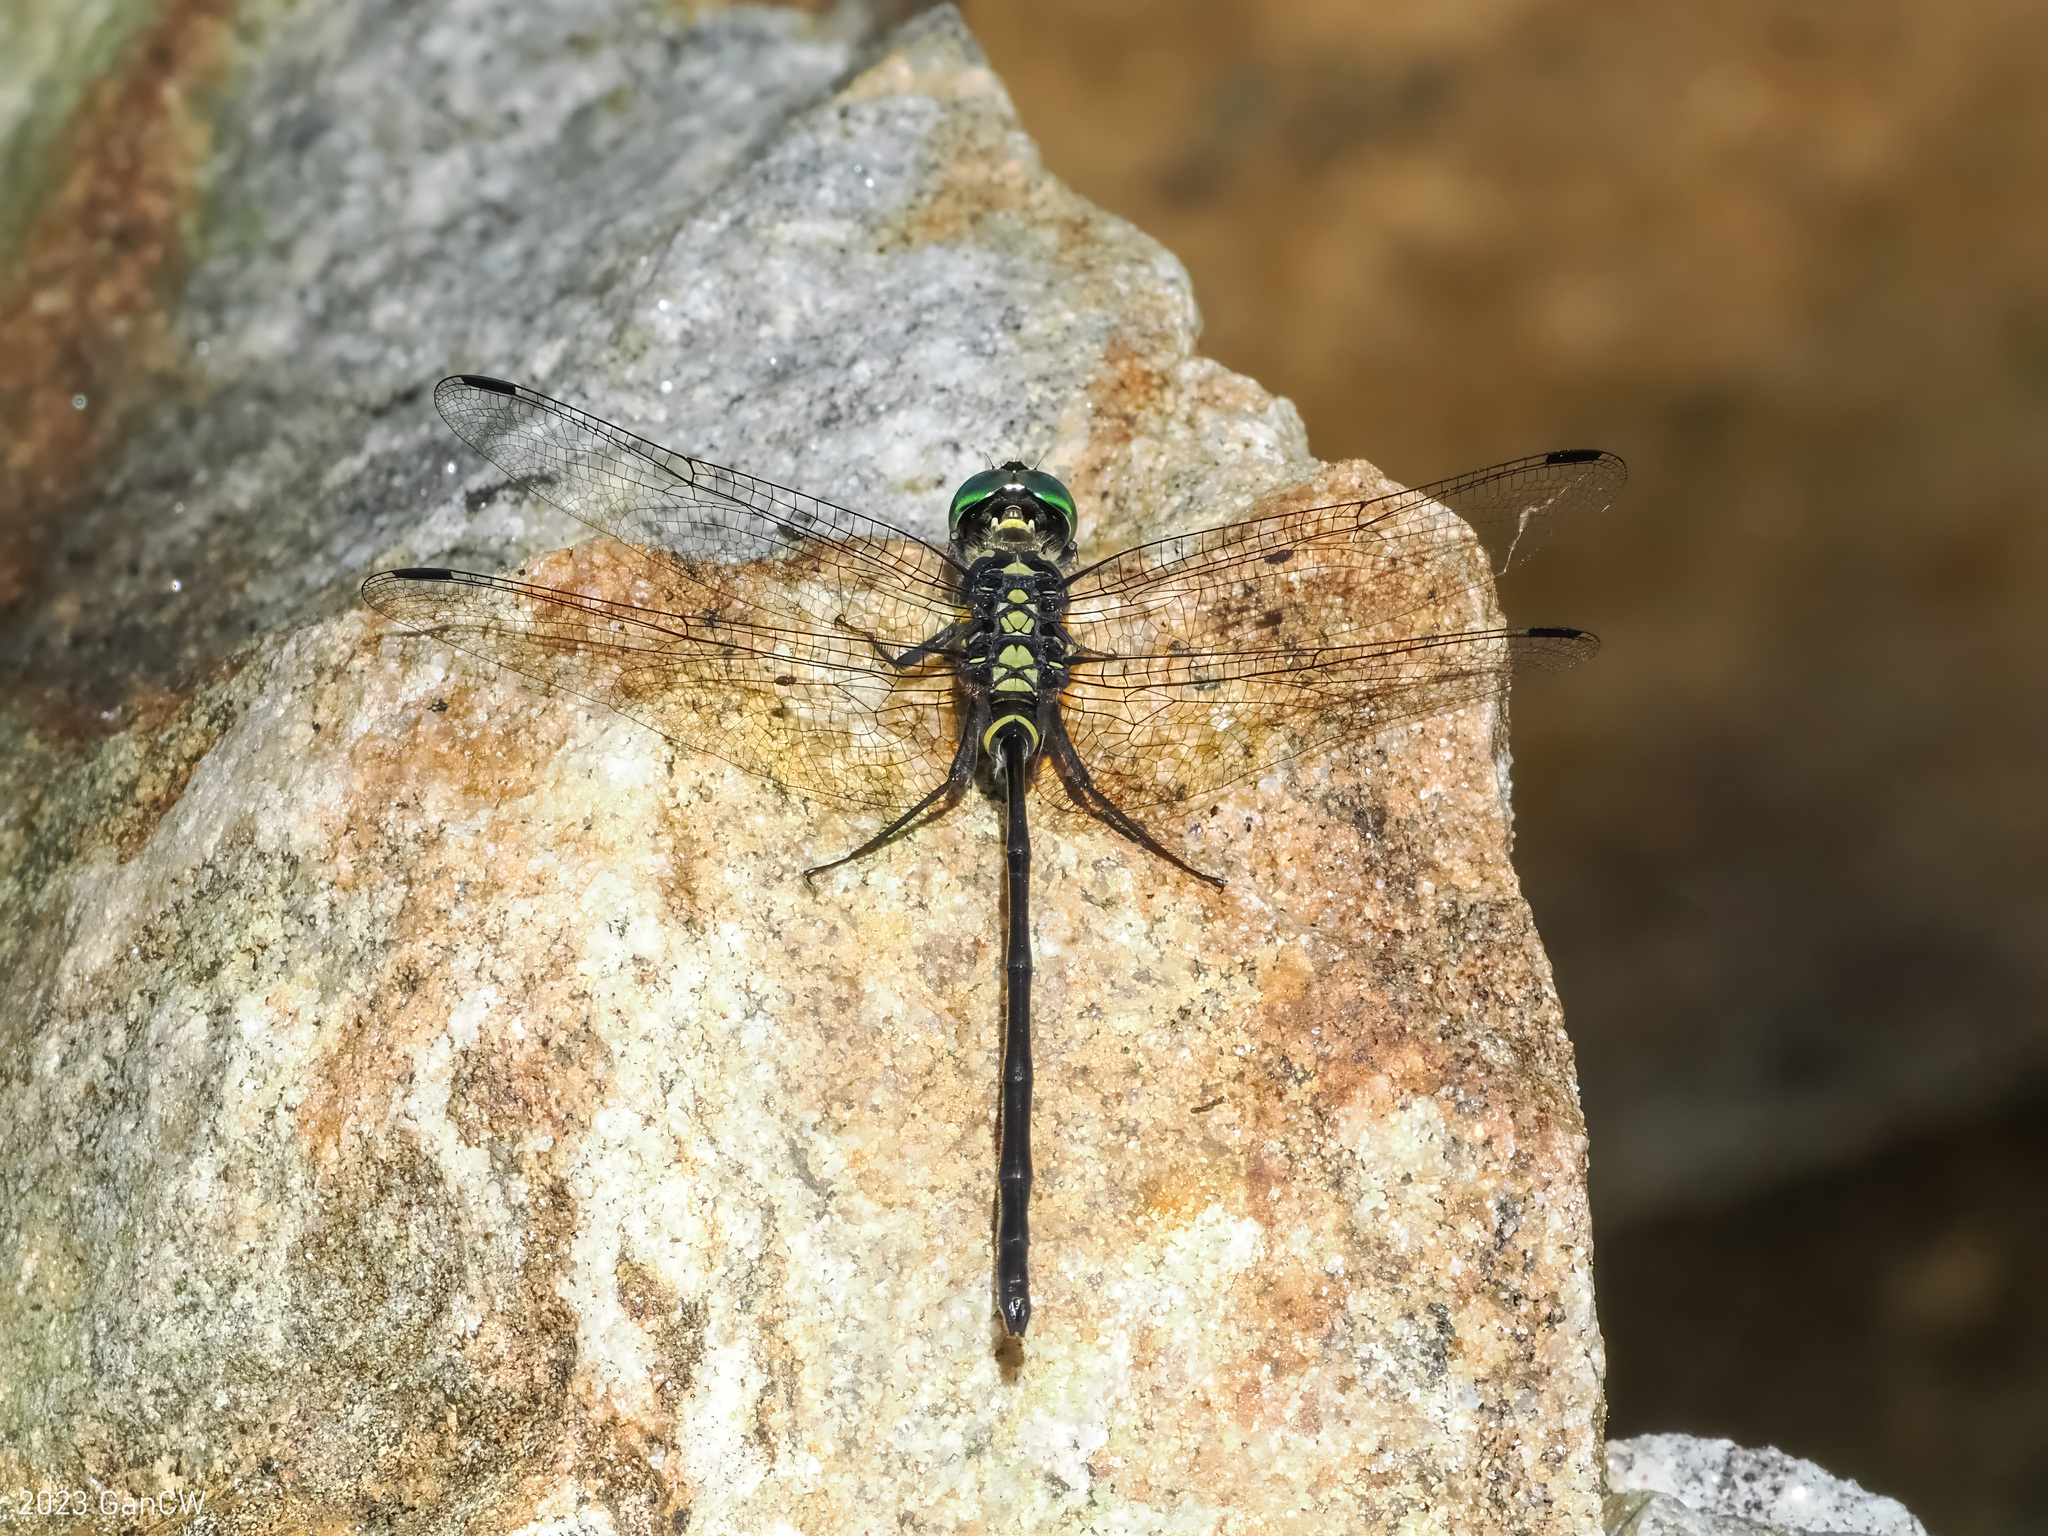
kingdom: Animalia
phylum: Arthropoda
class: Insecta
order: Odonata
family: Libellulidae
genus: Celebothemis
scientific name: Celebothemis delecollei
